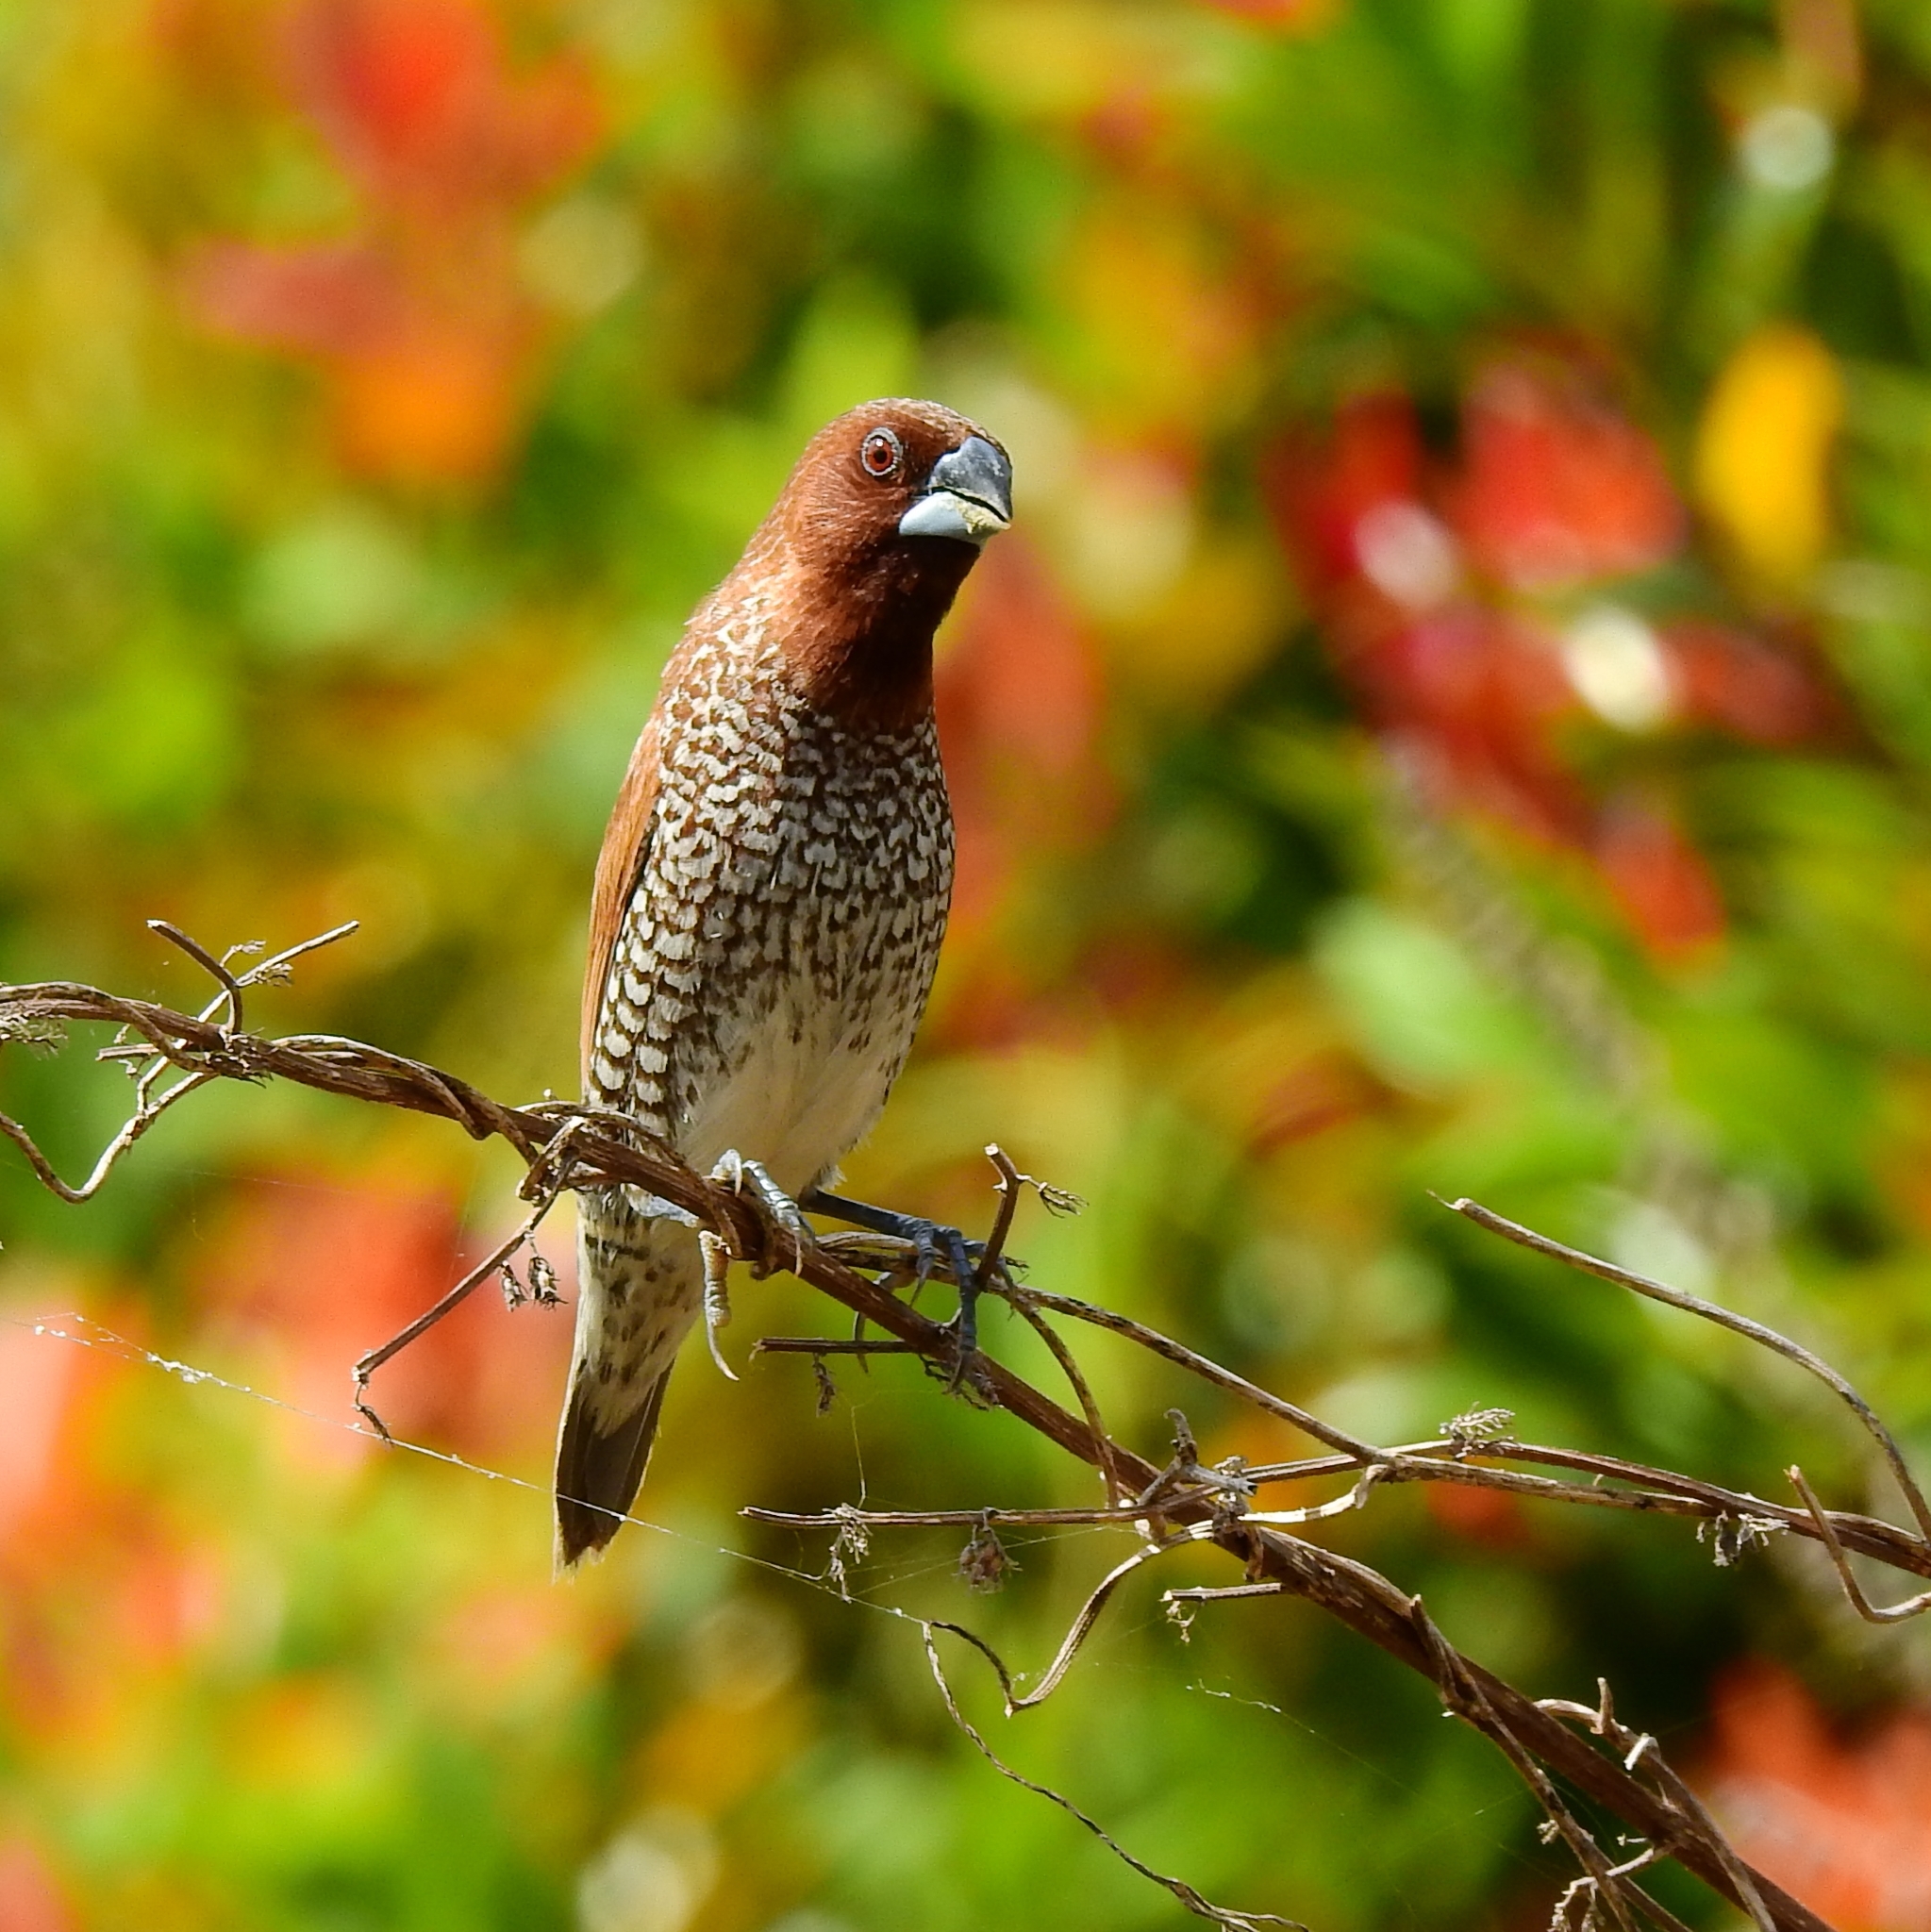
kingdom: Animalia
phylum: Chordata
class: Aves
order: Passeriformes
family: Estrildidae
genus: Lonchura
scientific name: Lonchura punctulata
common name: Scaly-breasted munia
